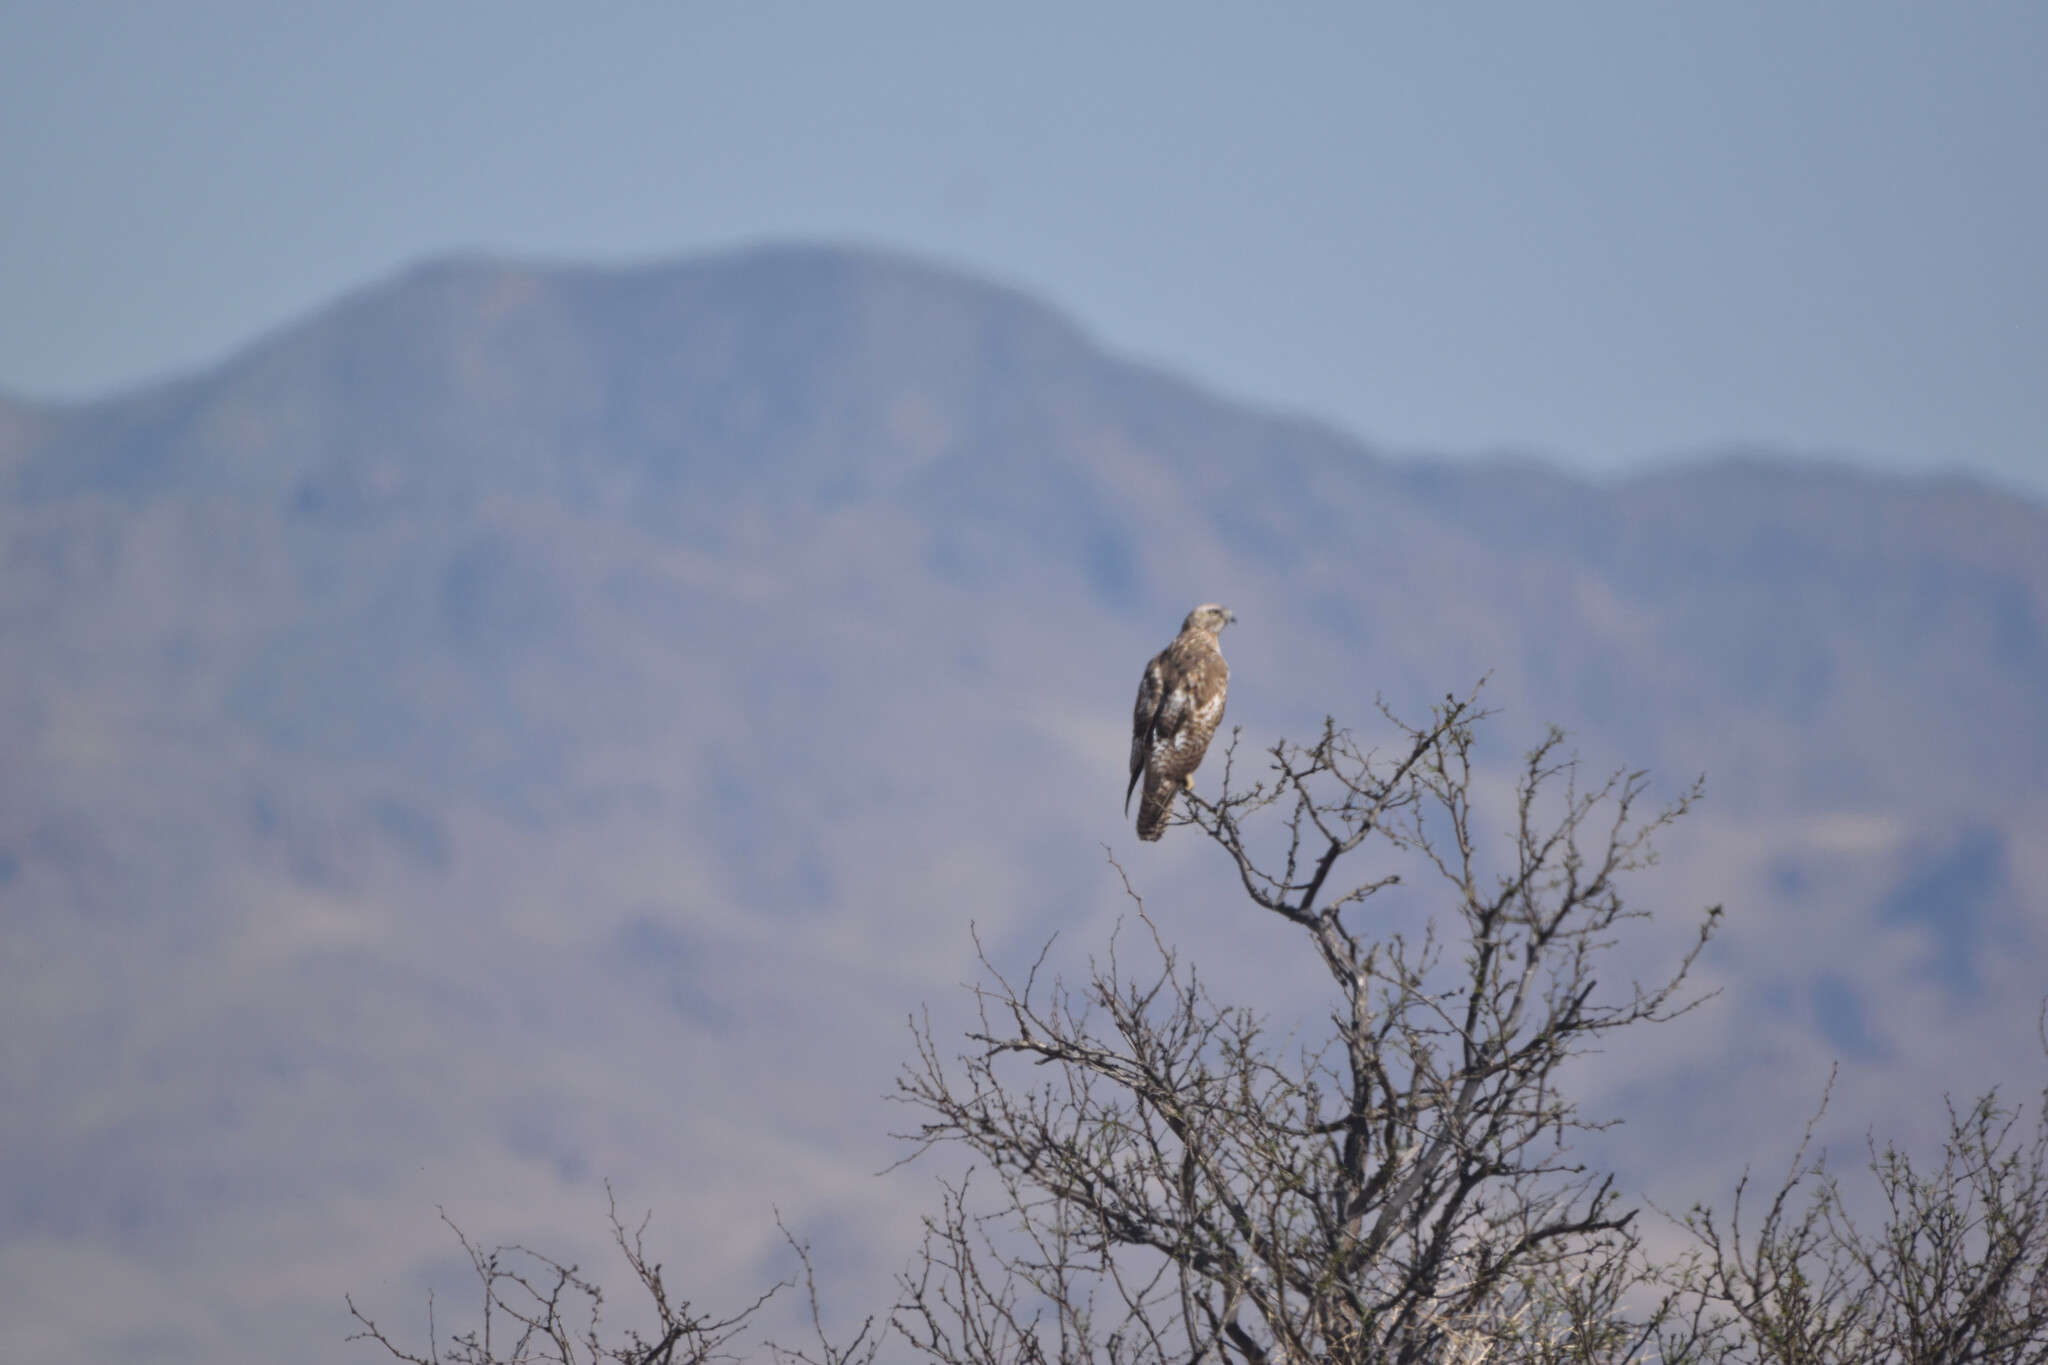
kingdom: Animalia
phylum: Chordata
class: Aves
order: Accipitriformes
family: Accipitridae
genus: Buteo
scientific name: Buteo jamaicensis
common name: Red-tailed hawk
